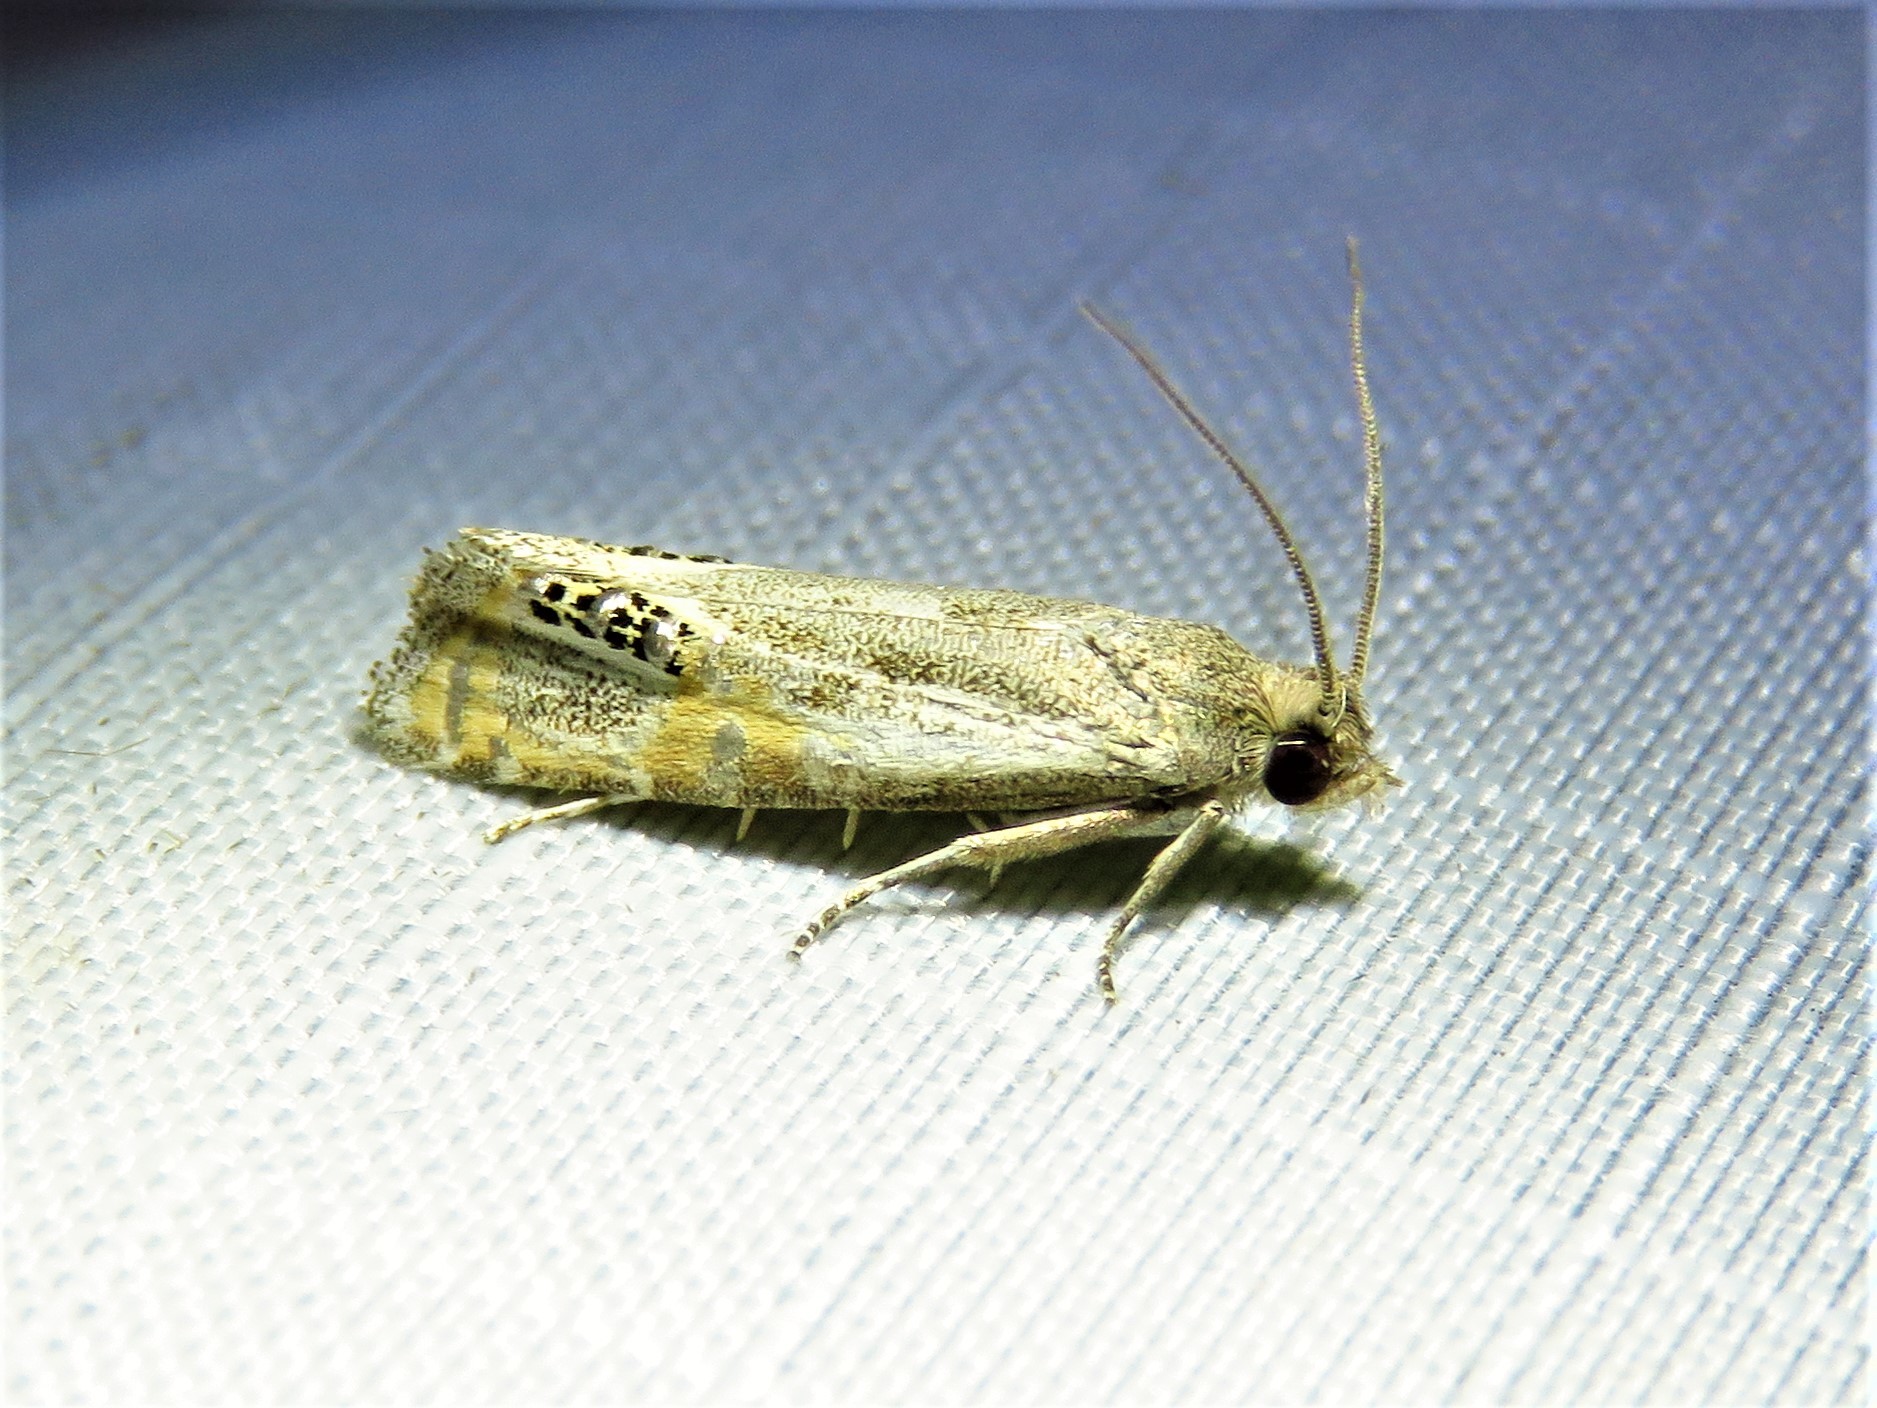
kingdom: Animalia
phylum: Arthropoda
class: Insecta
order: Lepidoptera
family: Tortricidae
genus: Pelochrista
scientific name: Pelochrista scintillana
